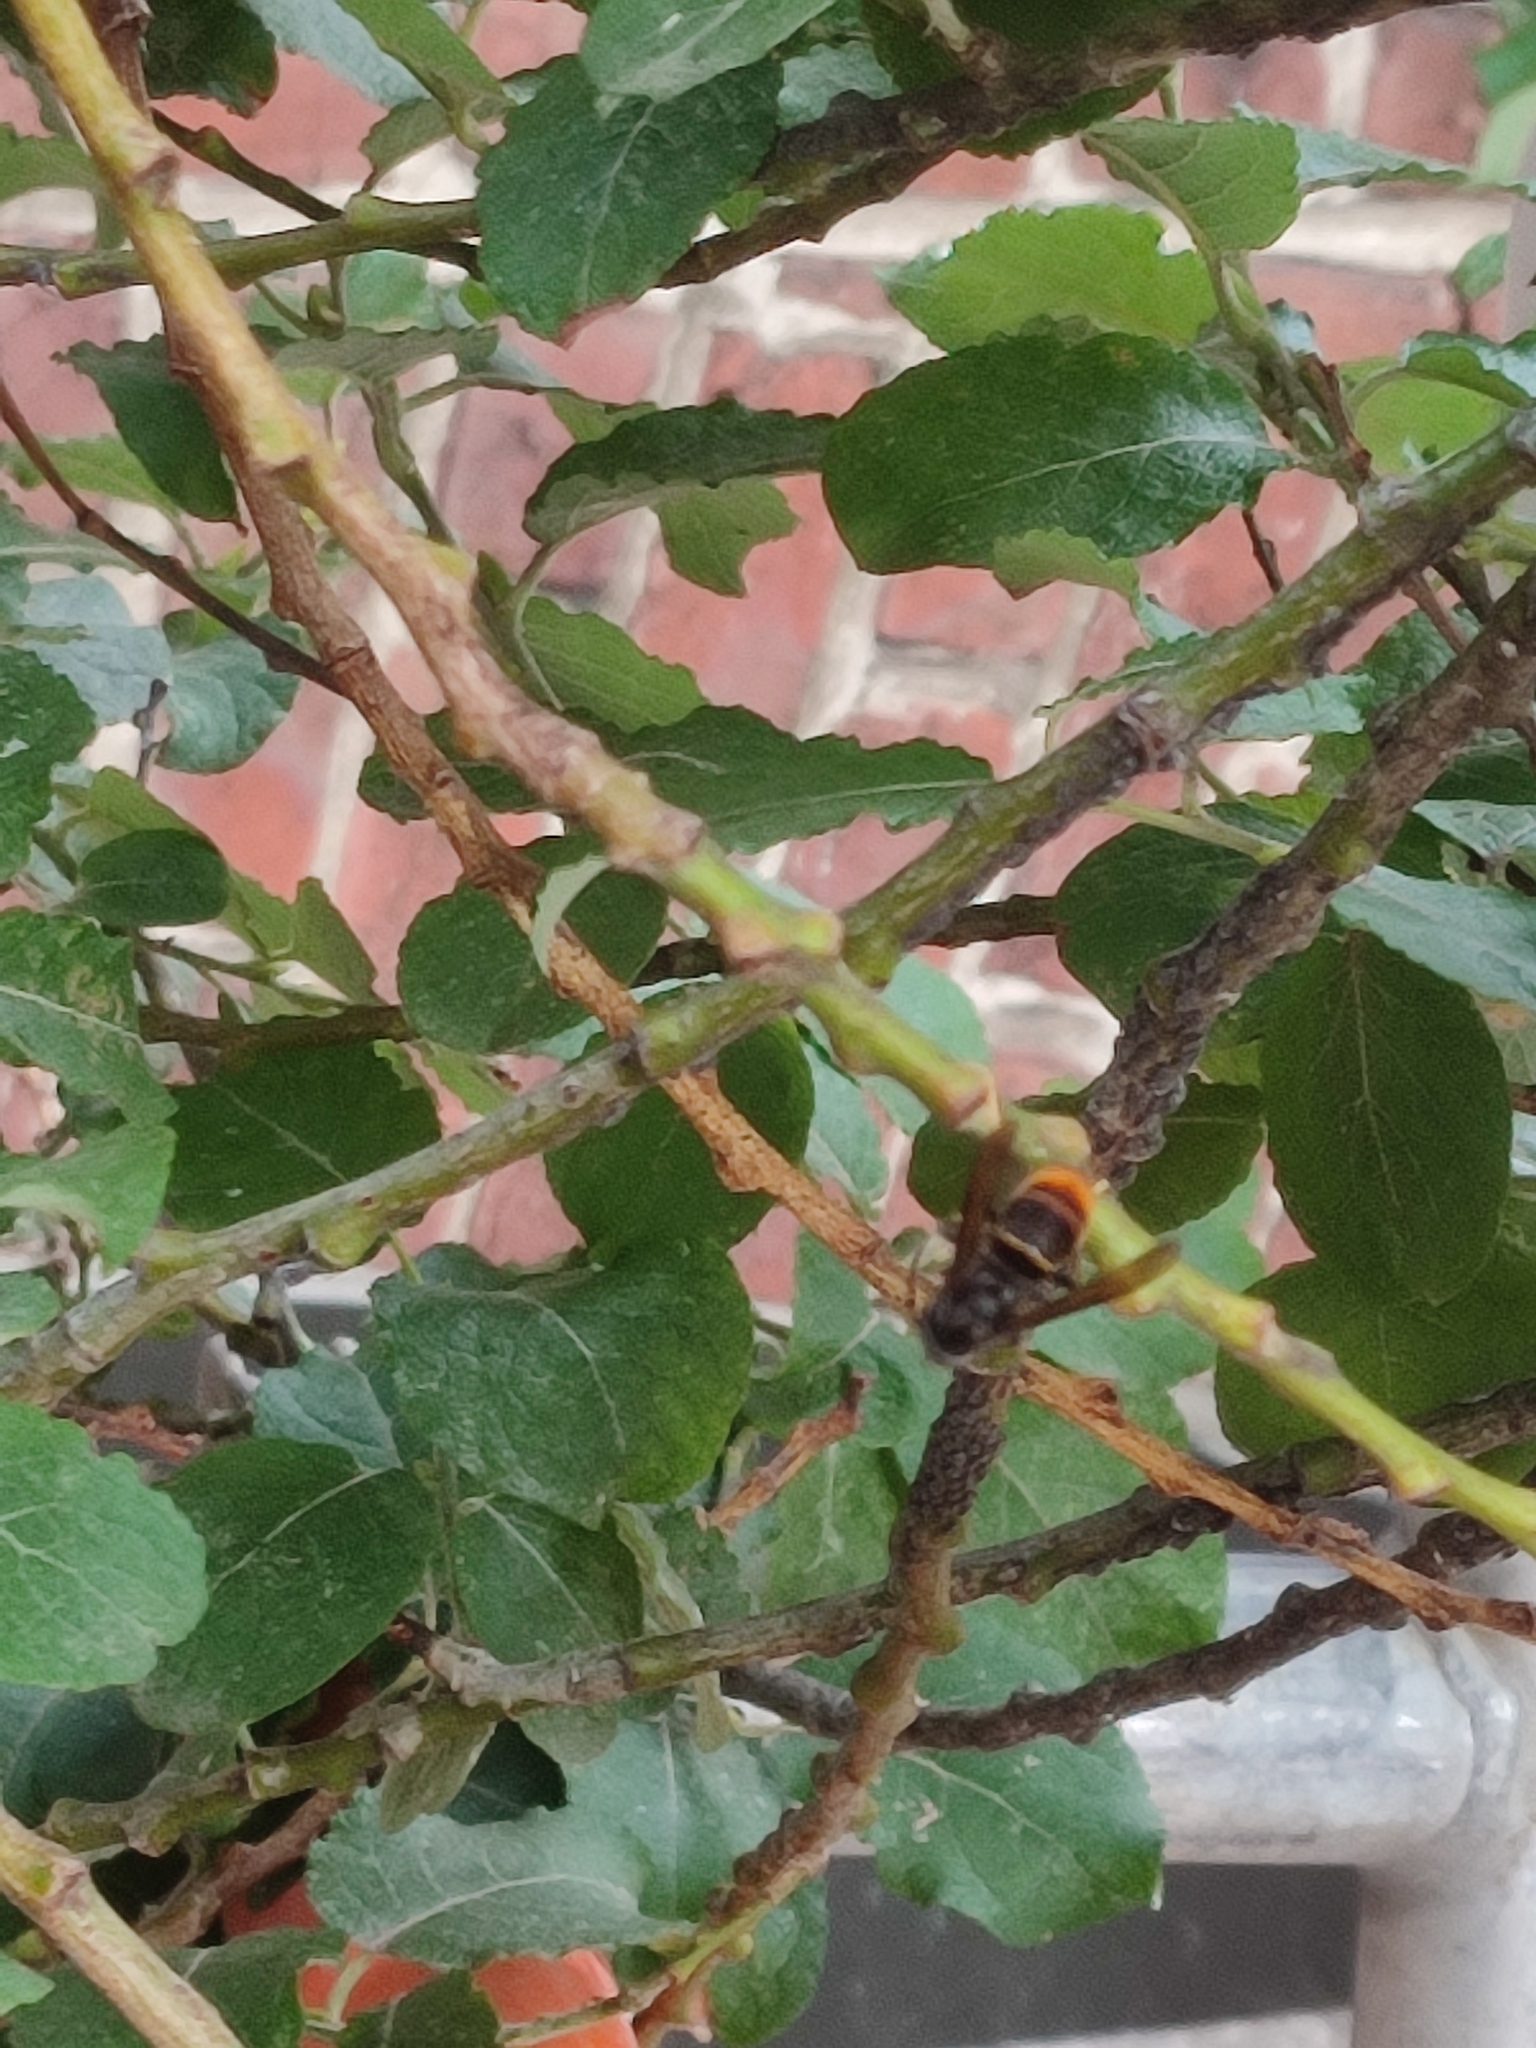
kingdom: Animalia
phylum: Arthropoda
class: Insecta
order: Hymenoptera
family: Vespidae
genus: Vespa
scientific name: Vespa velutina
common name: Asian hornet
